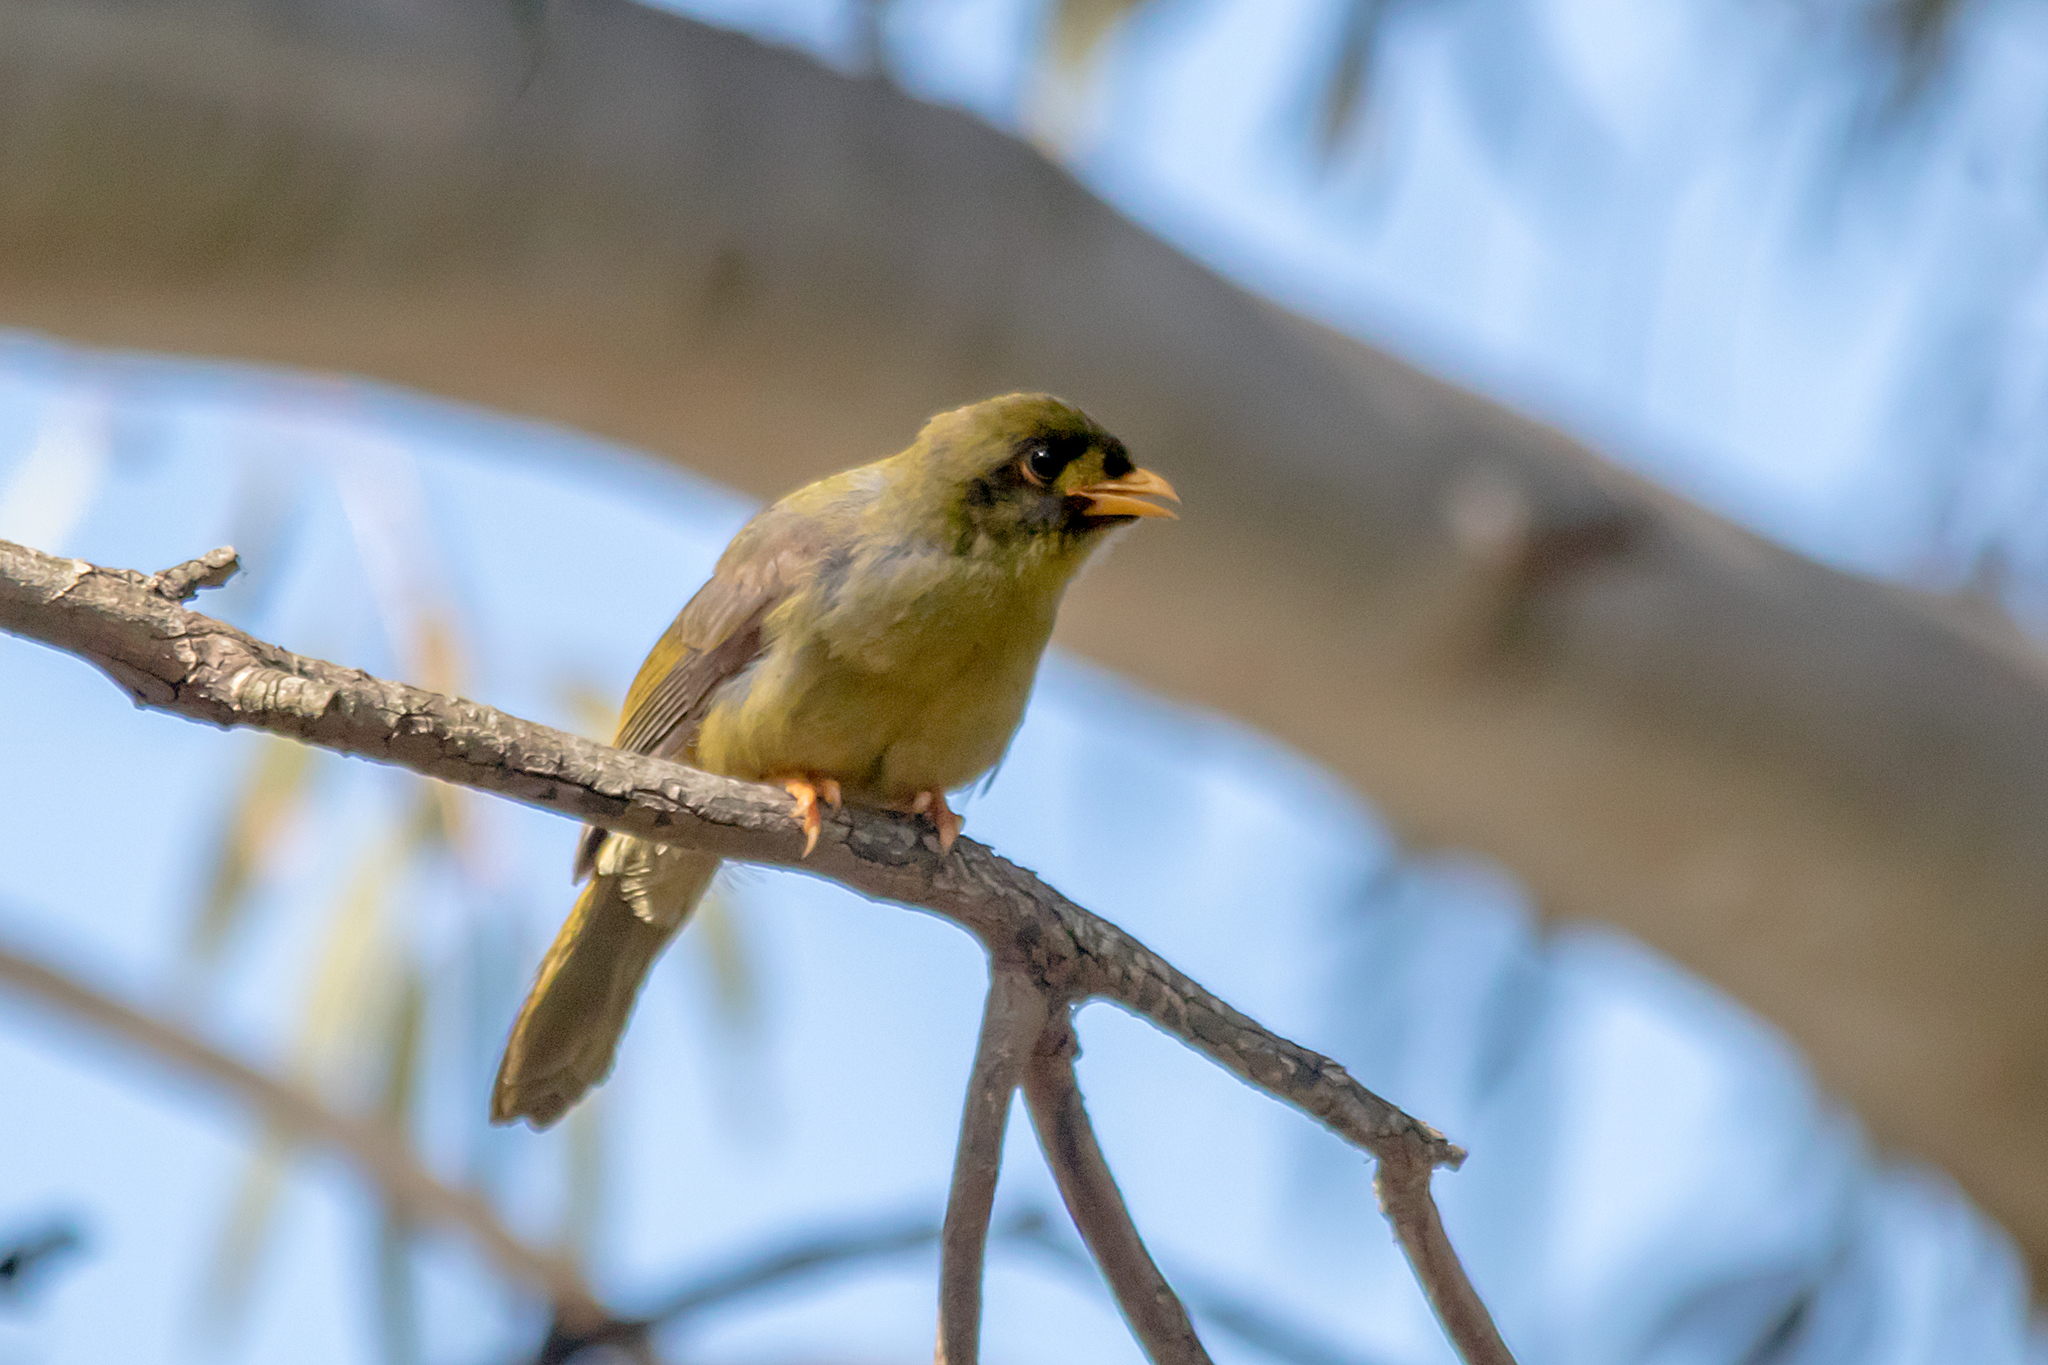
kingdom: Animalia
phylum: Chordata
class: Aves
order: Passeriformes
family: Meliphagidae
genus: Manorina
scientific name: Manorina melanophrys
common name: Bell miner
